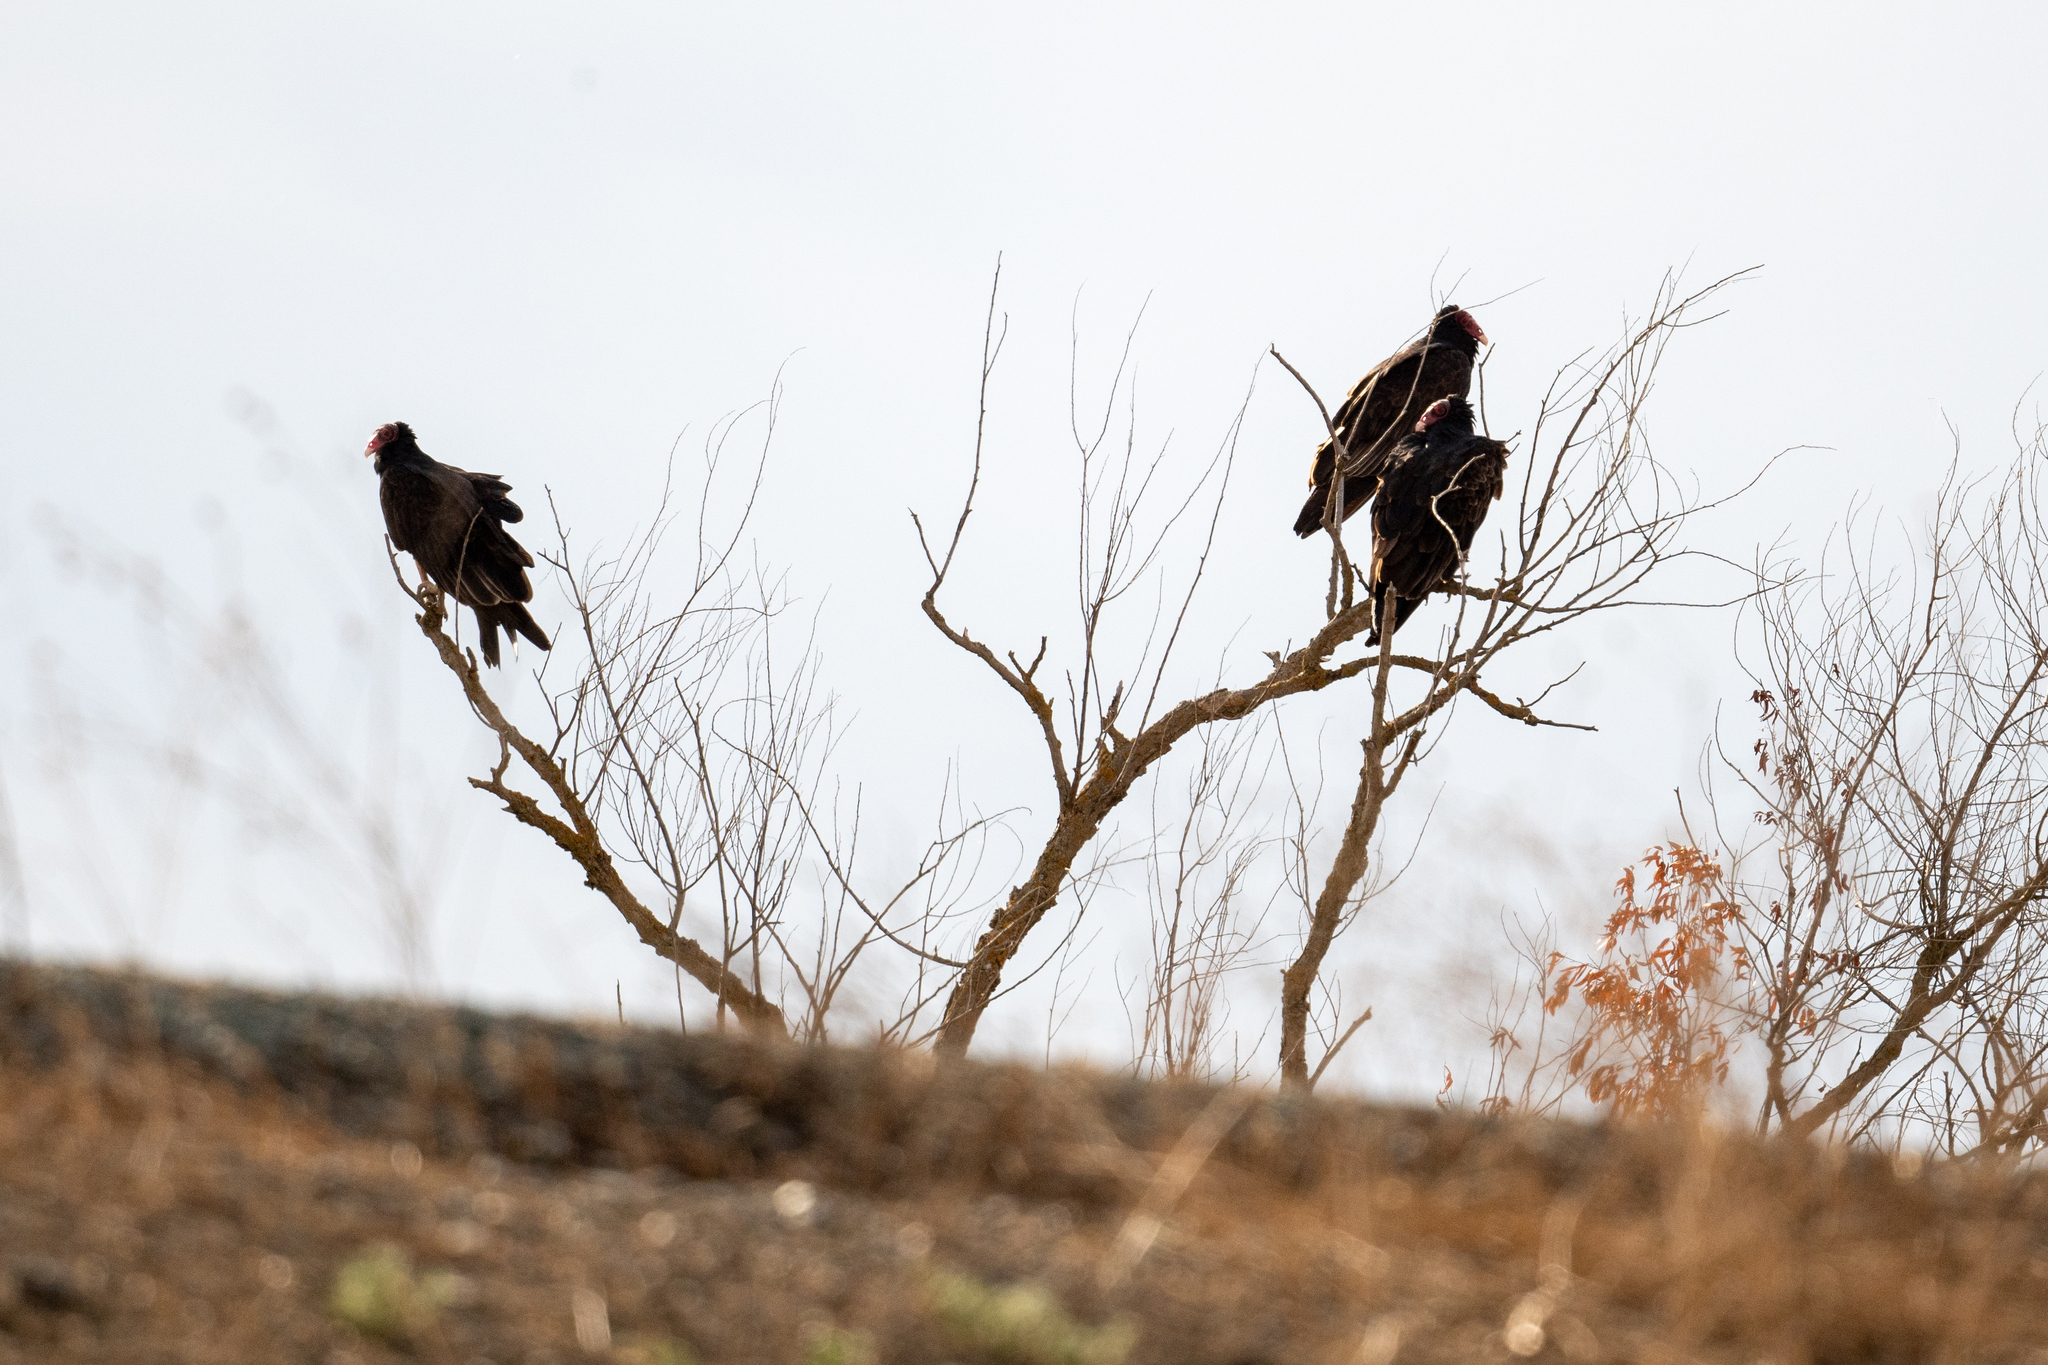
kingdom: Animalia
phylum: Chordata
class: Aves
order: Accipitriformes
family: Cathartidae
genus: Cathartes
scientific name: Cathartes aura
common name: Turkey vulture
